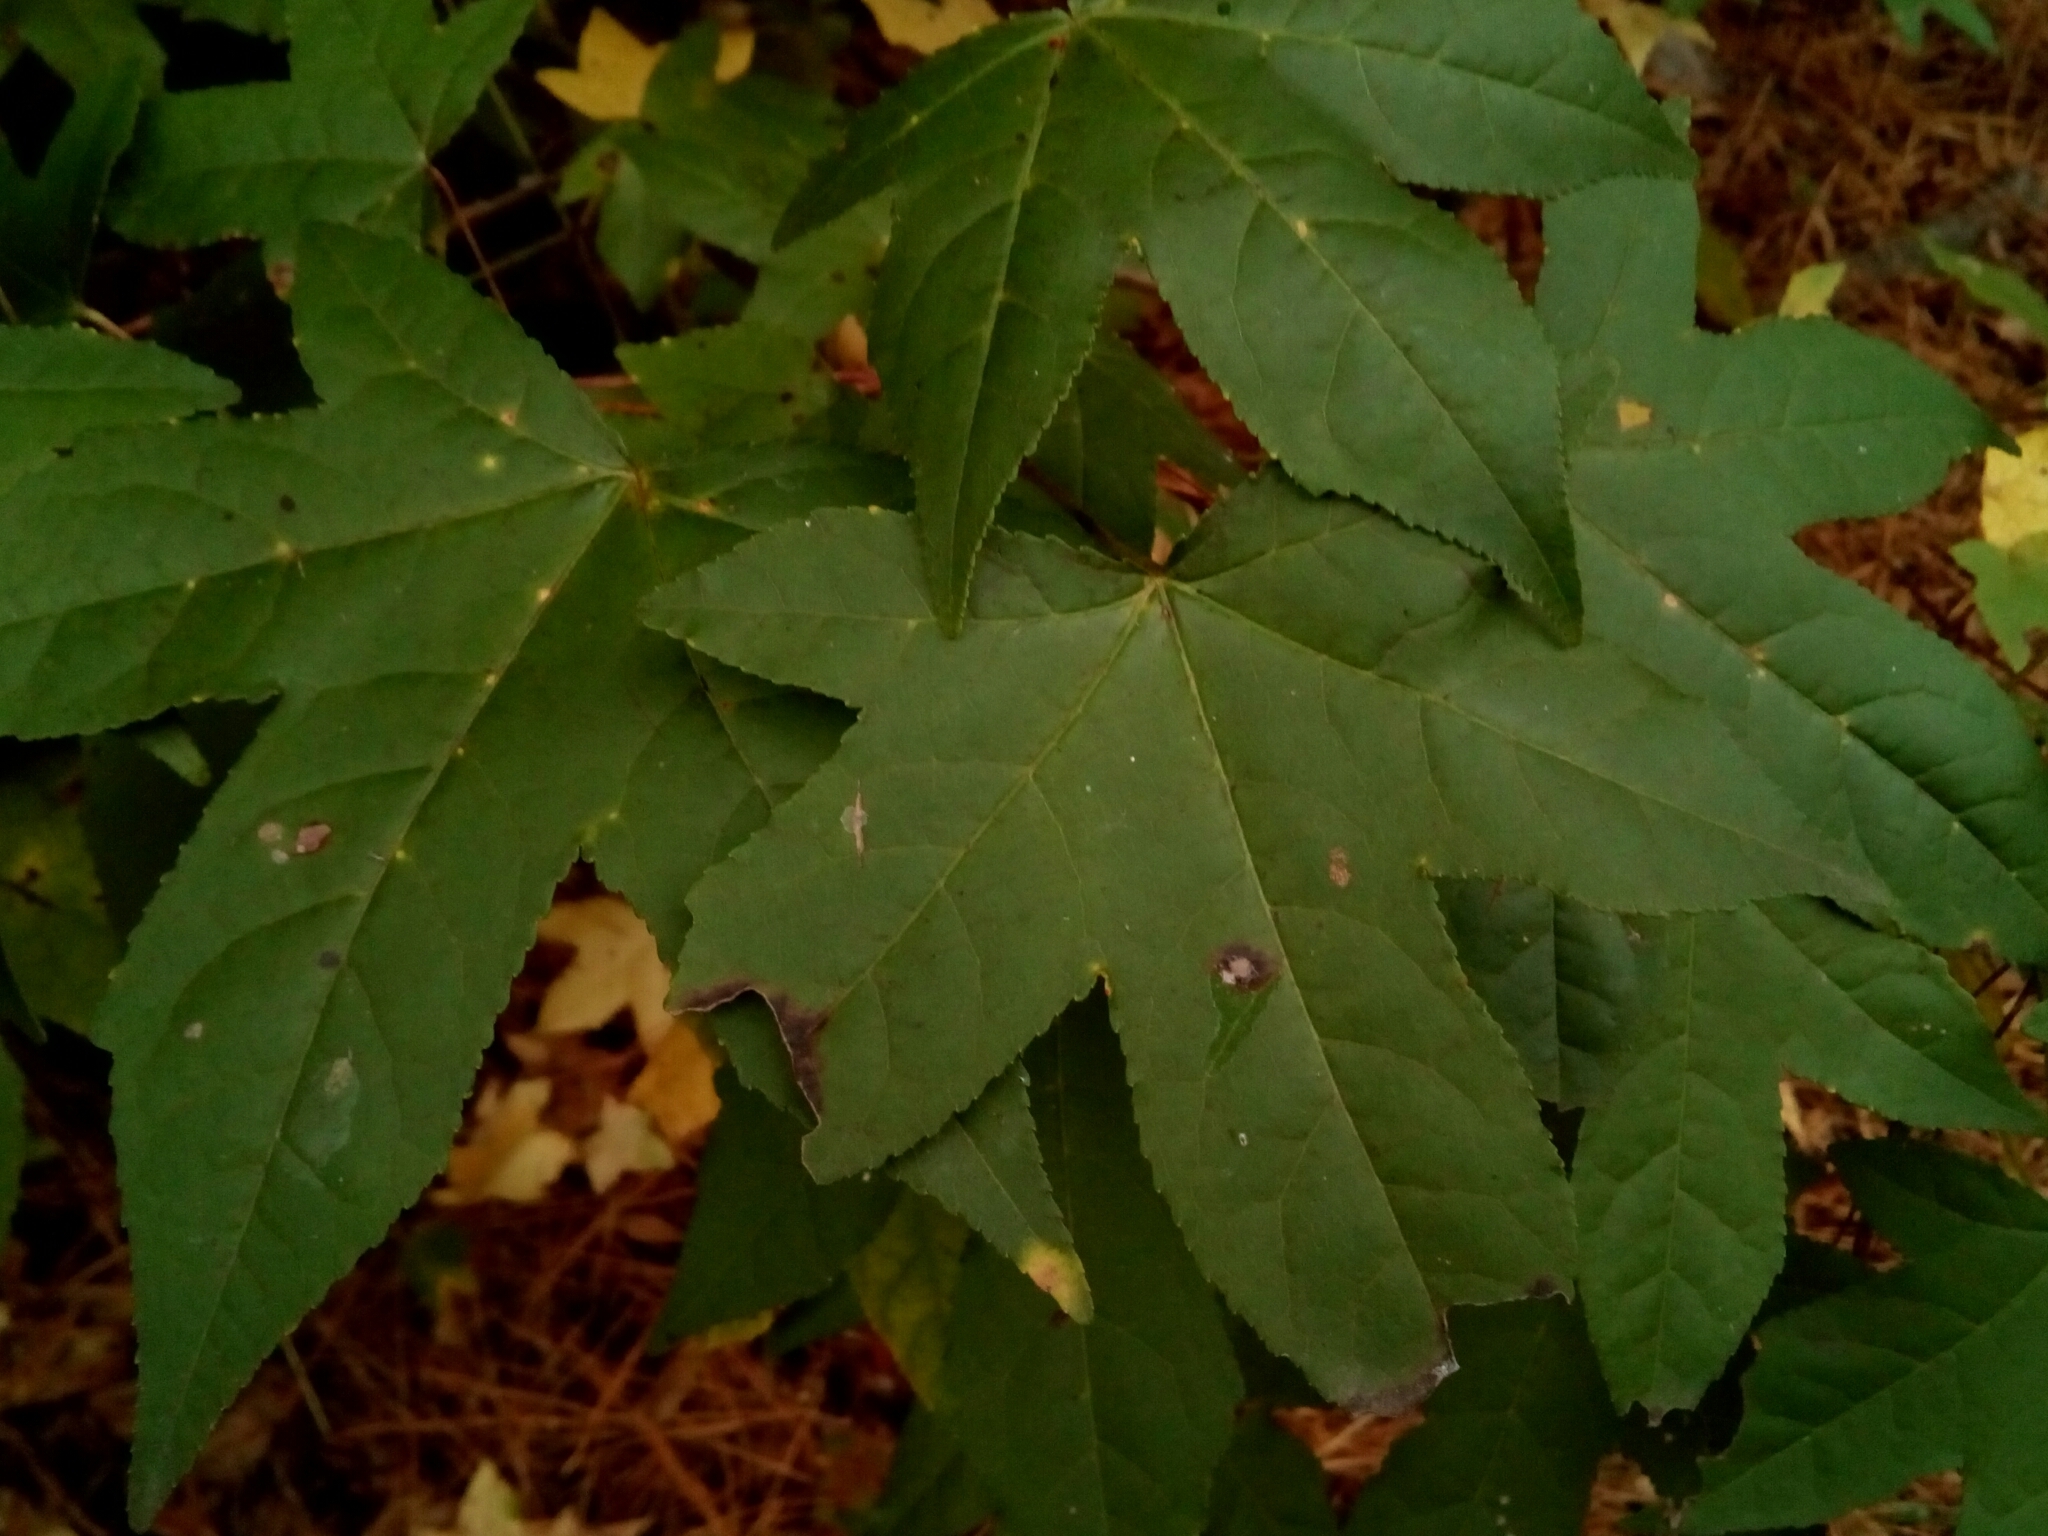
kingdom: Plantae
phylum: Tracheophyta
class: Magnoliopsida
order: Saxifragales
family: Altingiaceae
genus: Liquidambar
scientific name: Liquidambar styraciflua
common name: Sweet gum
